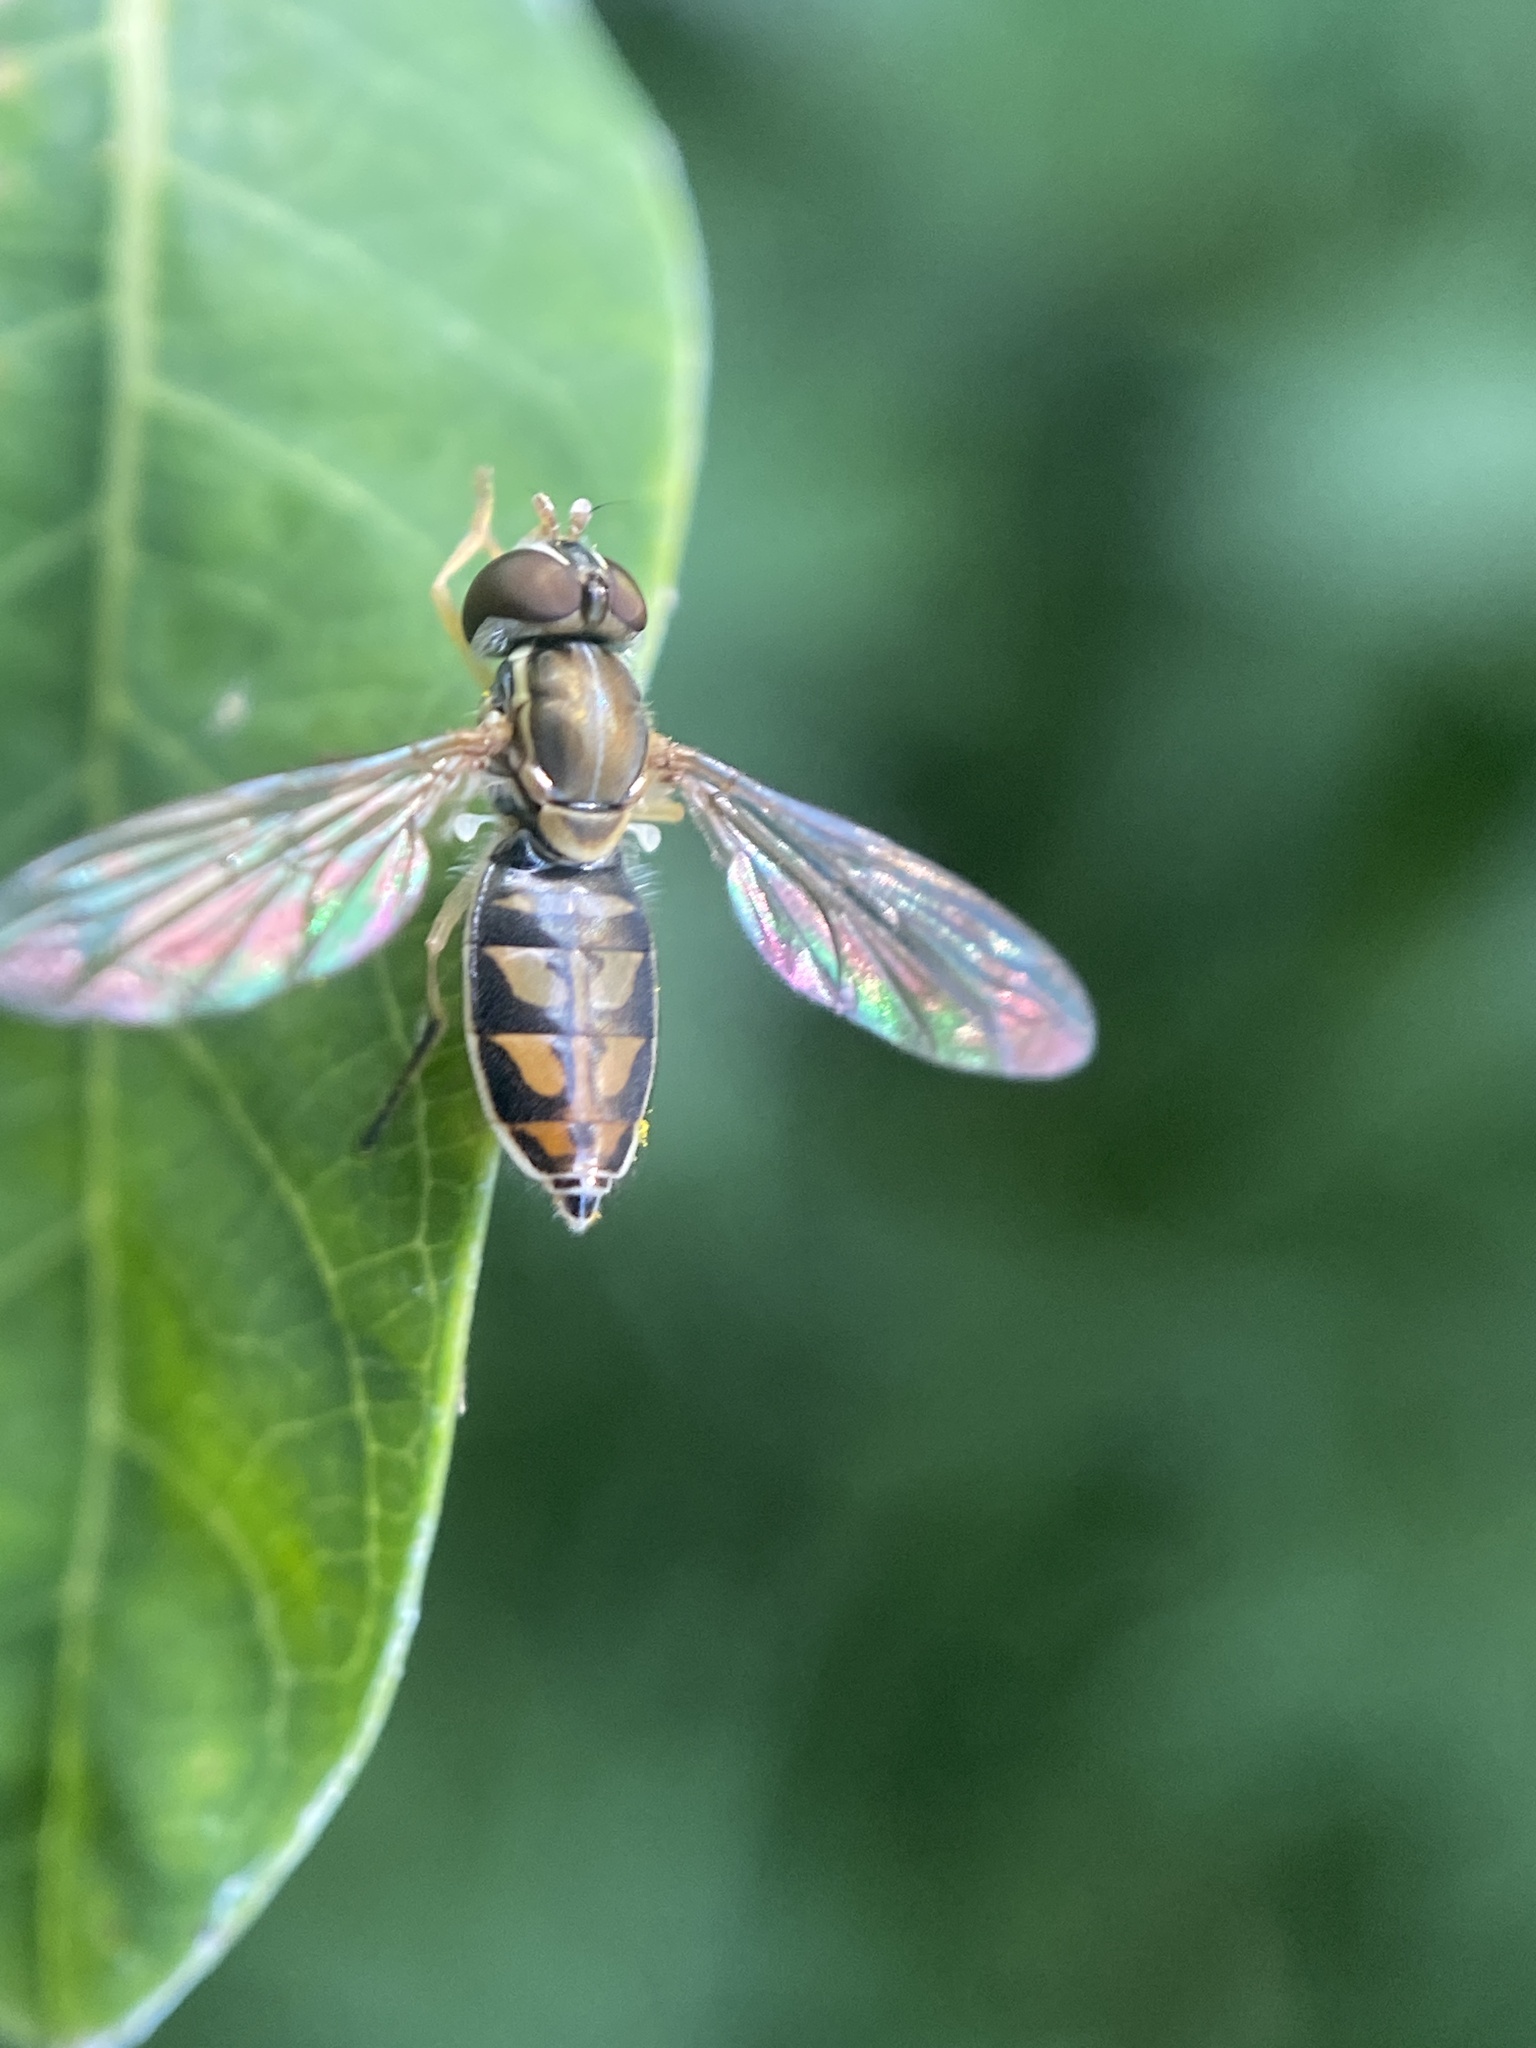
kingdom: Animalia
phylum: Arthropoda
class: Insecta
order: Diptera
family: Syrphidae
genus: Toxomerus
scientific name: Toxomerus marginatus
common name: Syrphid fly
